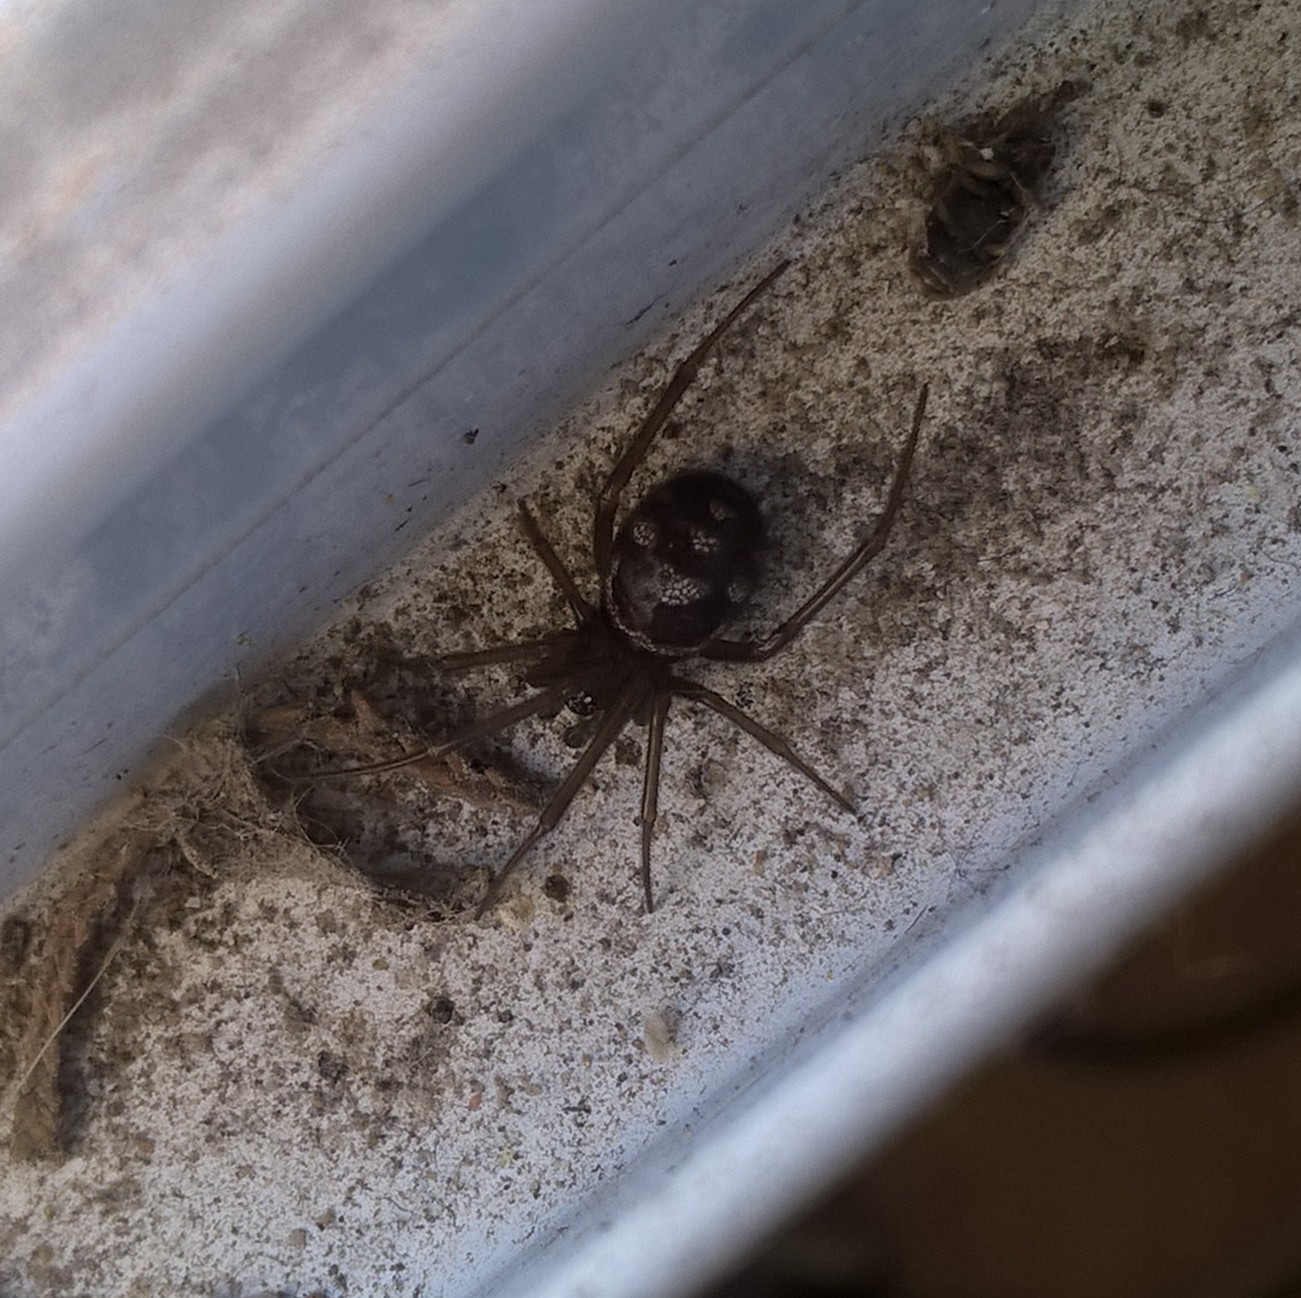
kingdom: Animalia
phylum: Arthropoda
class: Arachnida
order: Araneae
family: Theridiidae
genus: Steatoda
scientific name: Steatoda grossa
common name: False black widow
